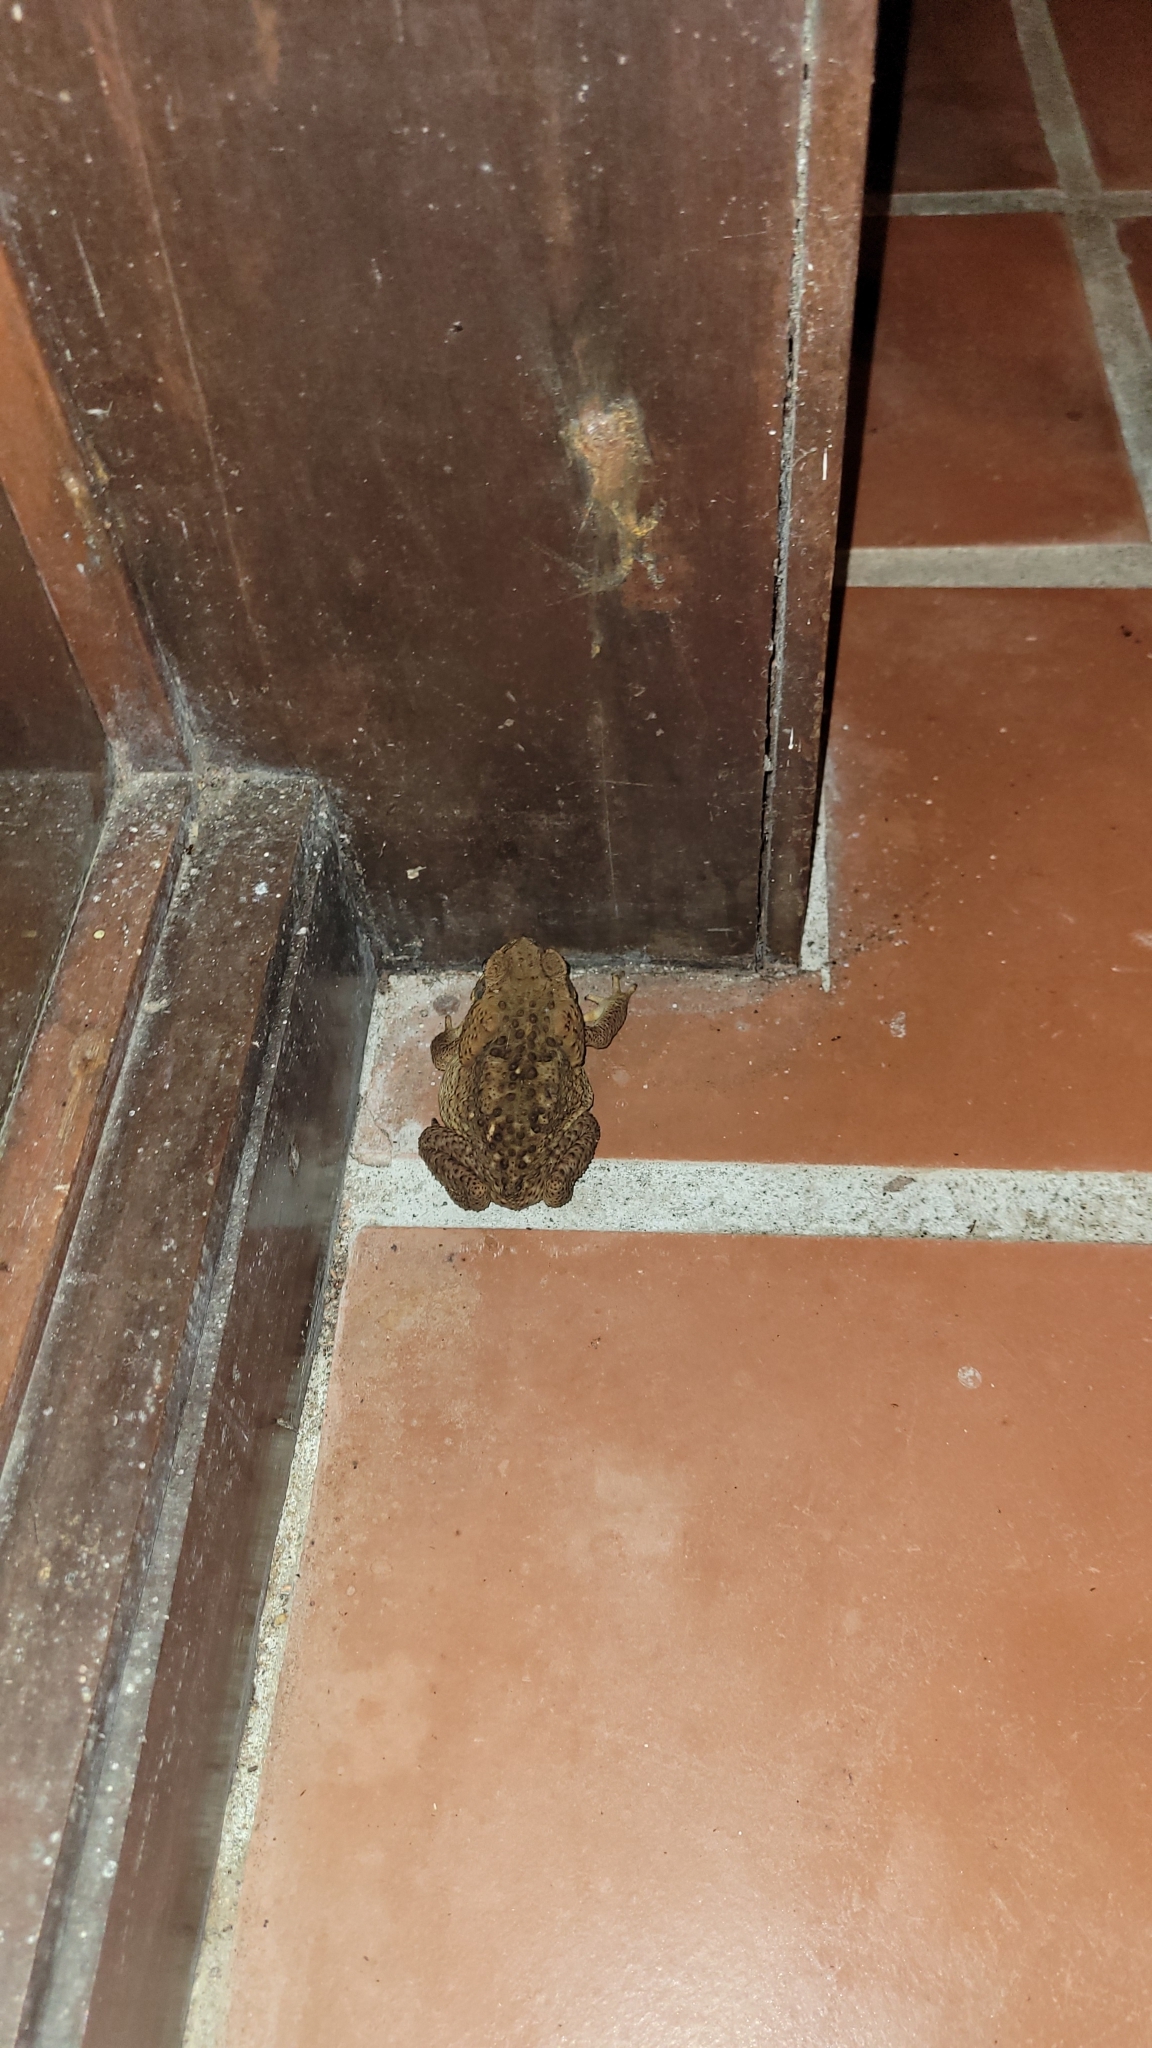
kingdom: Animalia
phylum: Chordata
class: Amphibia
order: Anura
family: Bufonidae
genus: Rhinella
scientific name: Rhinella horribilis
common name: Mesoamerican cane toad
